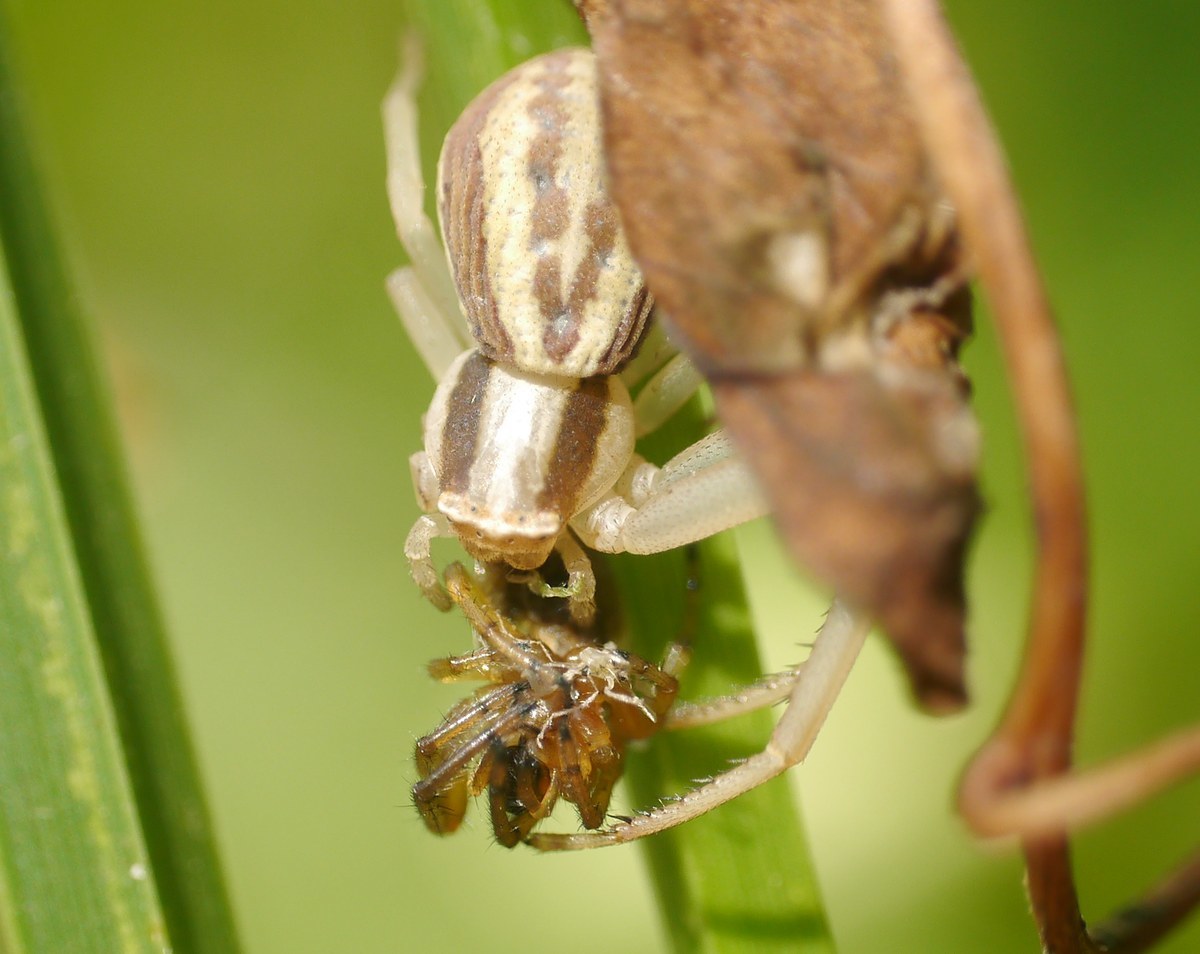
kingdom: Animalia
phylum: Arthropoda
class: Arachnida
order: Araneae
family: Thomisidae
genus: Runcinia
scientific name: Runcinia grammica
